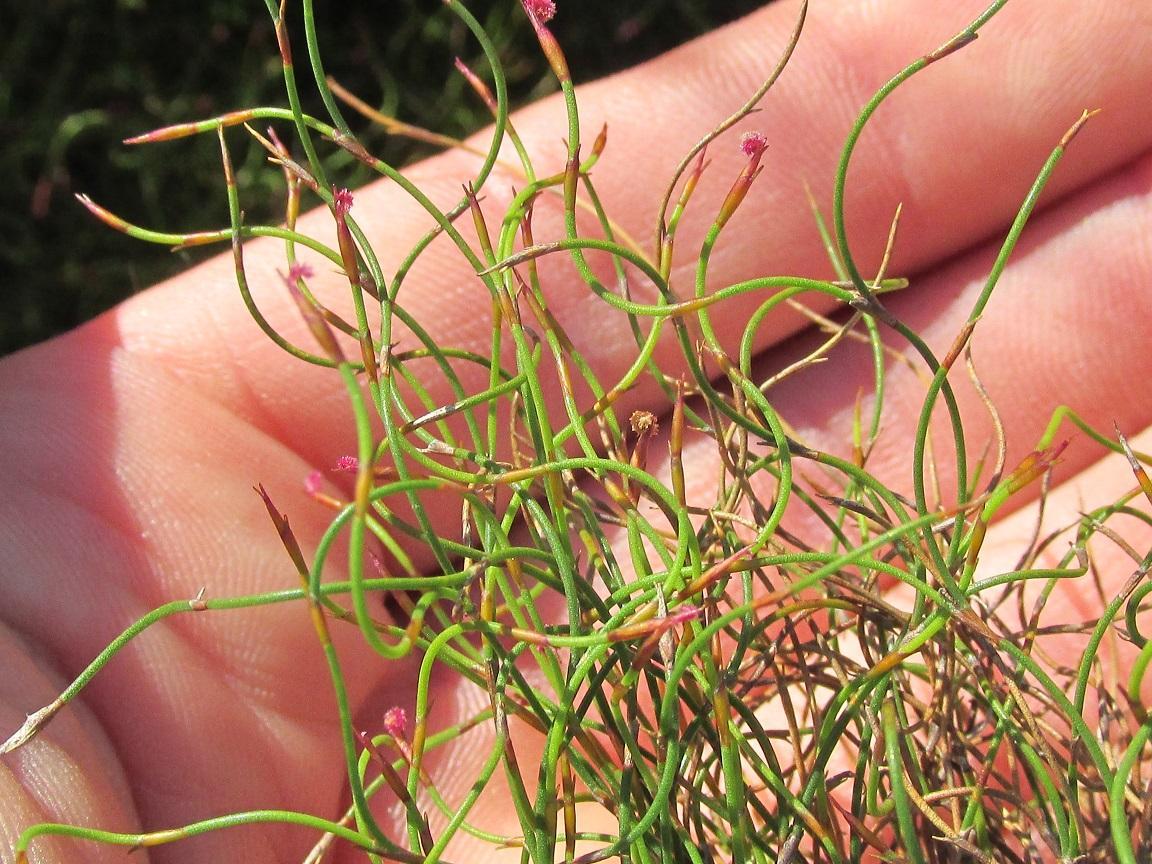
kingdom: Plantae
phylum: Tracheophyta
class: Liliopsida
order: Poales
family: Restionaceae
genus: Restio
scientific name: Restio tenuissimus
